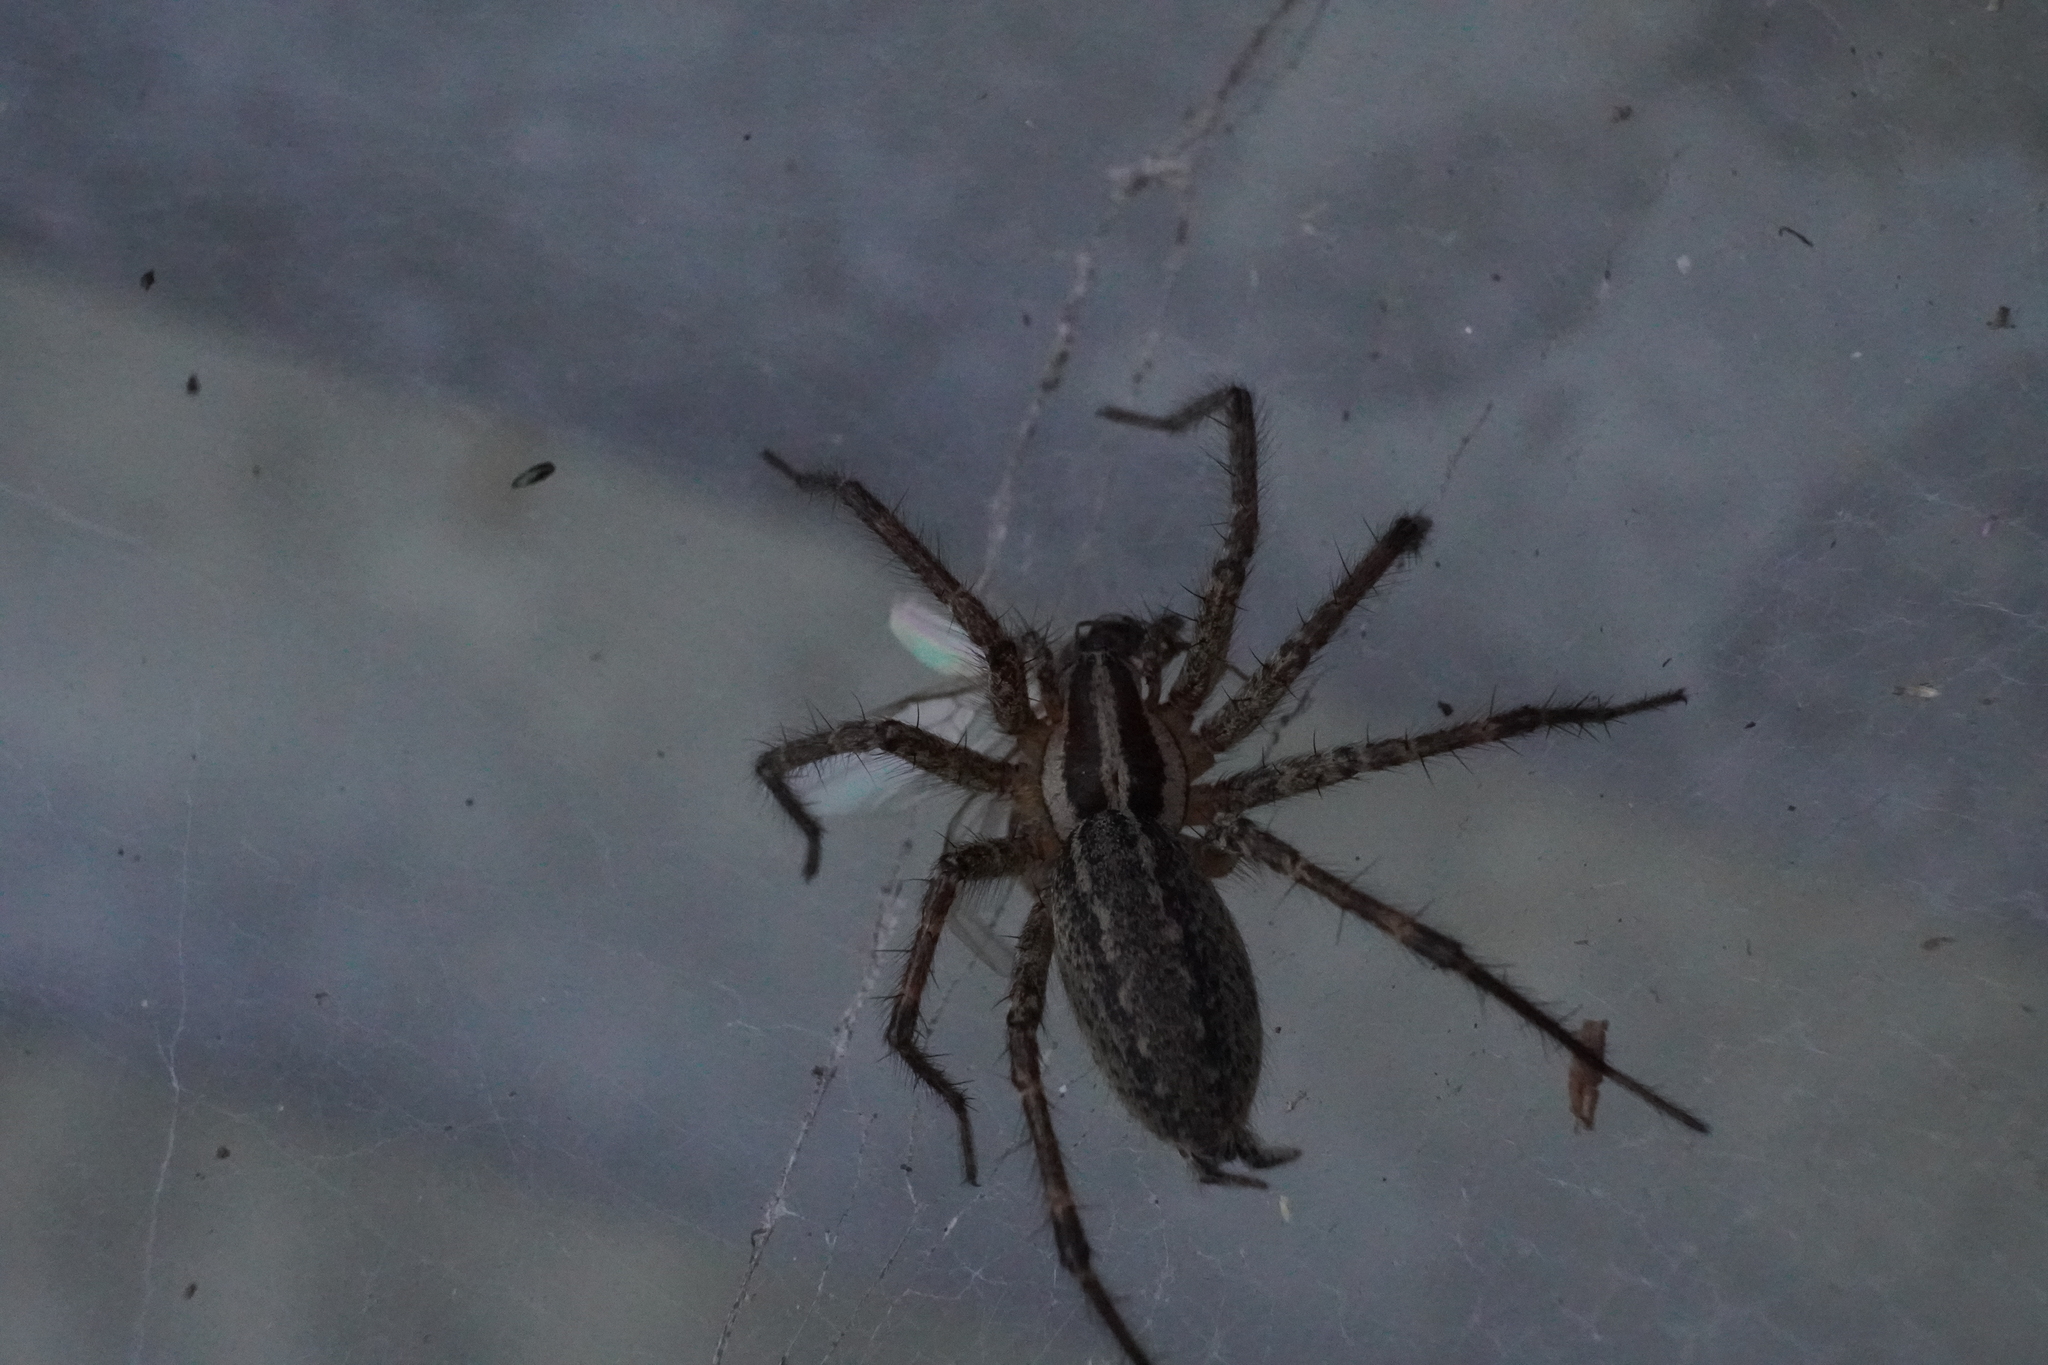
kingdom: Animalia
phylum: Arthropoda
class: Arachnida
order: Araneae
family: Agelenidae
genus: Agelenopsis
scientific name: Agelenopsis
